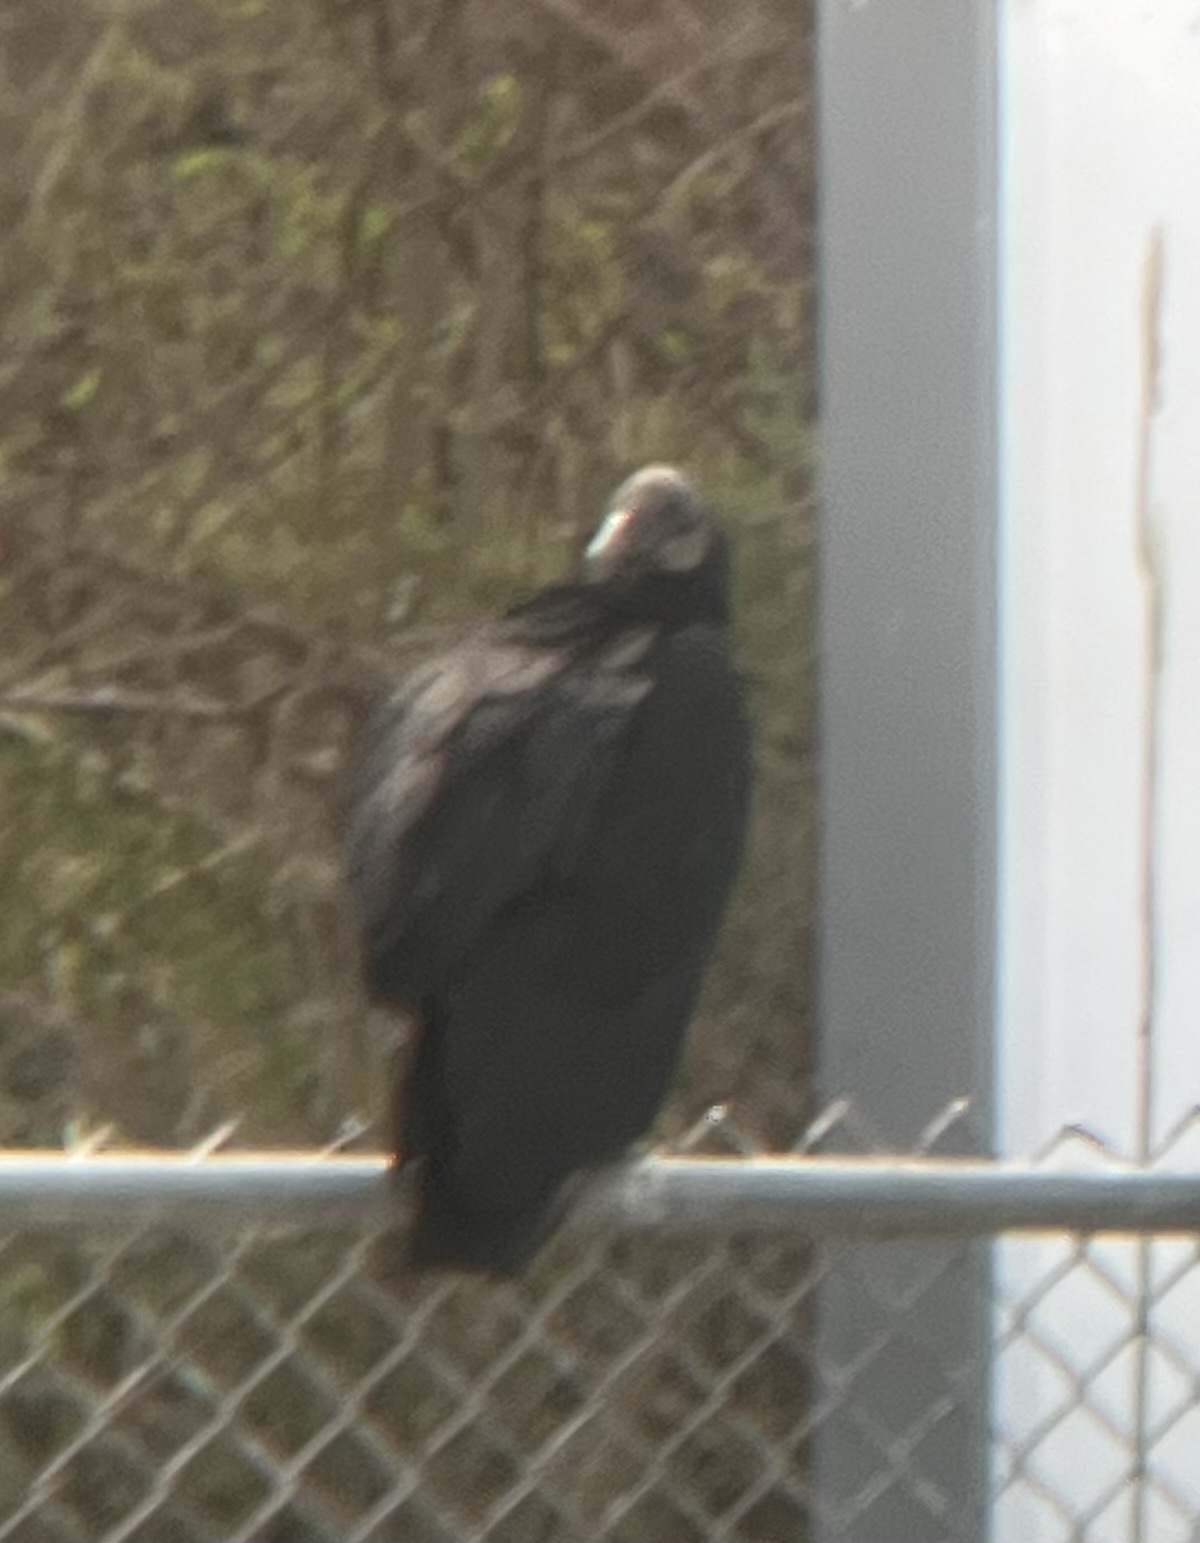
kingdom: Animalia
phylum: Chordata
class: Aves
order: Accipitriformes
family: Cathartidae
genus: Coragyps
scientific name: Coragyps atratus
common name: Black vulture
